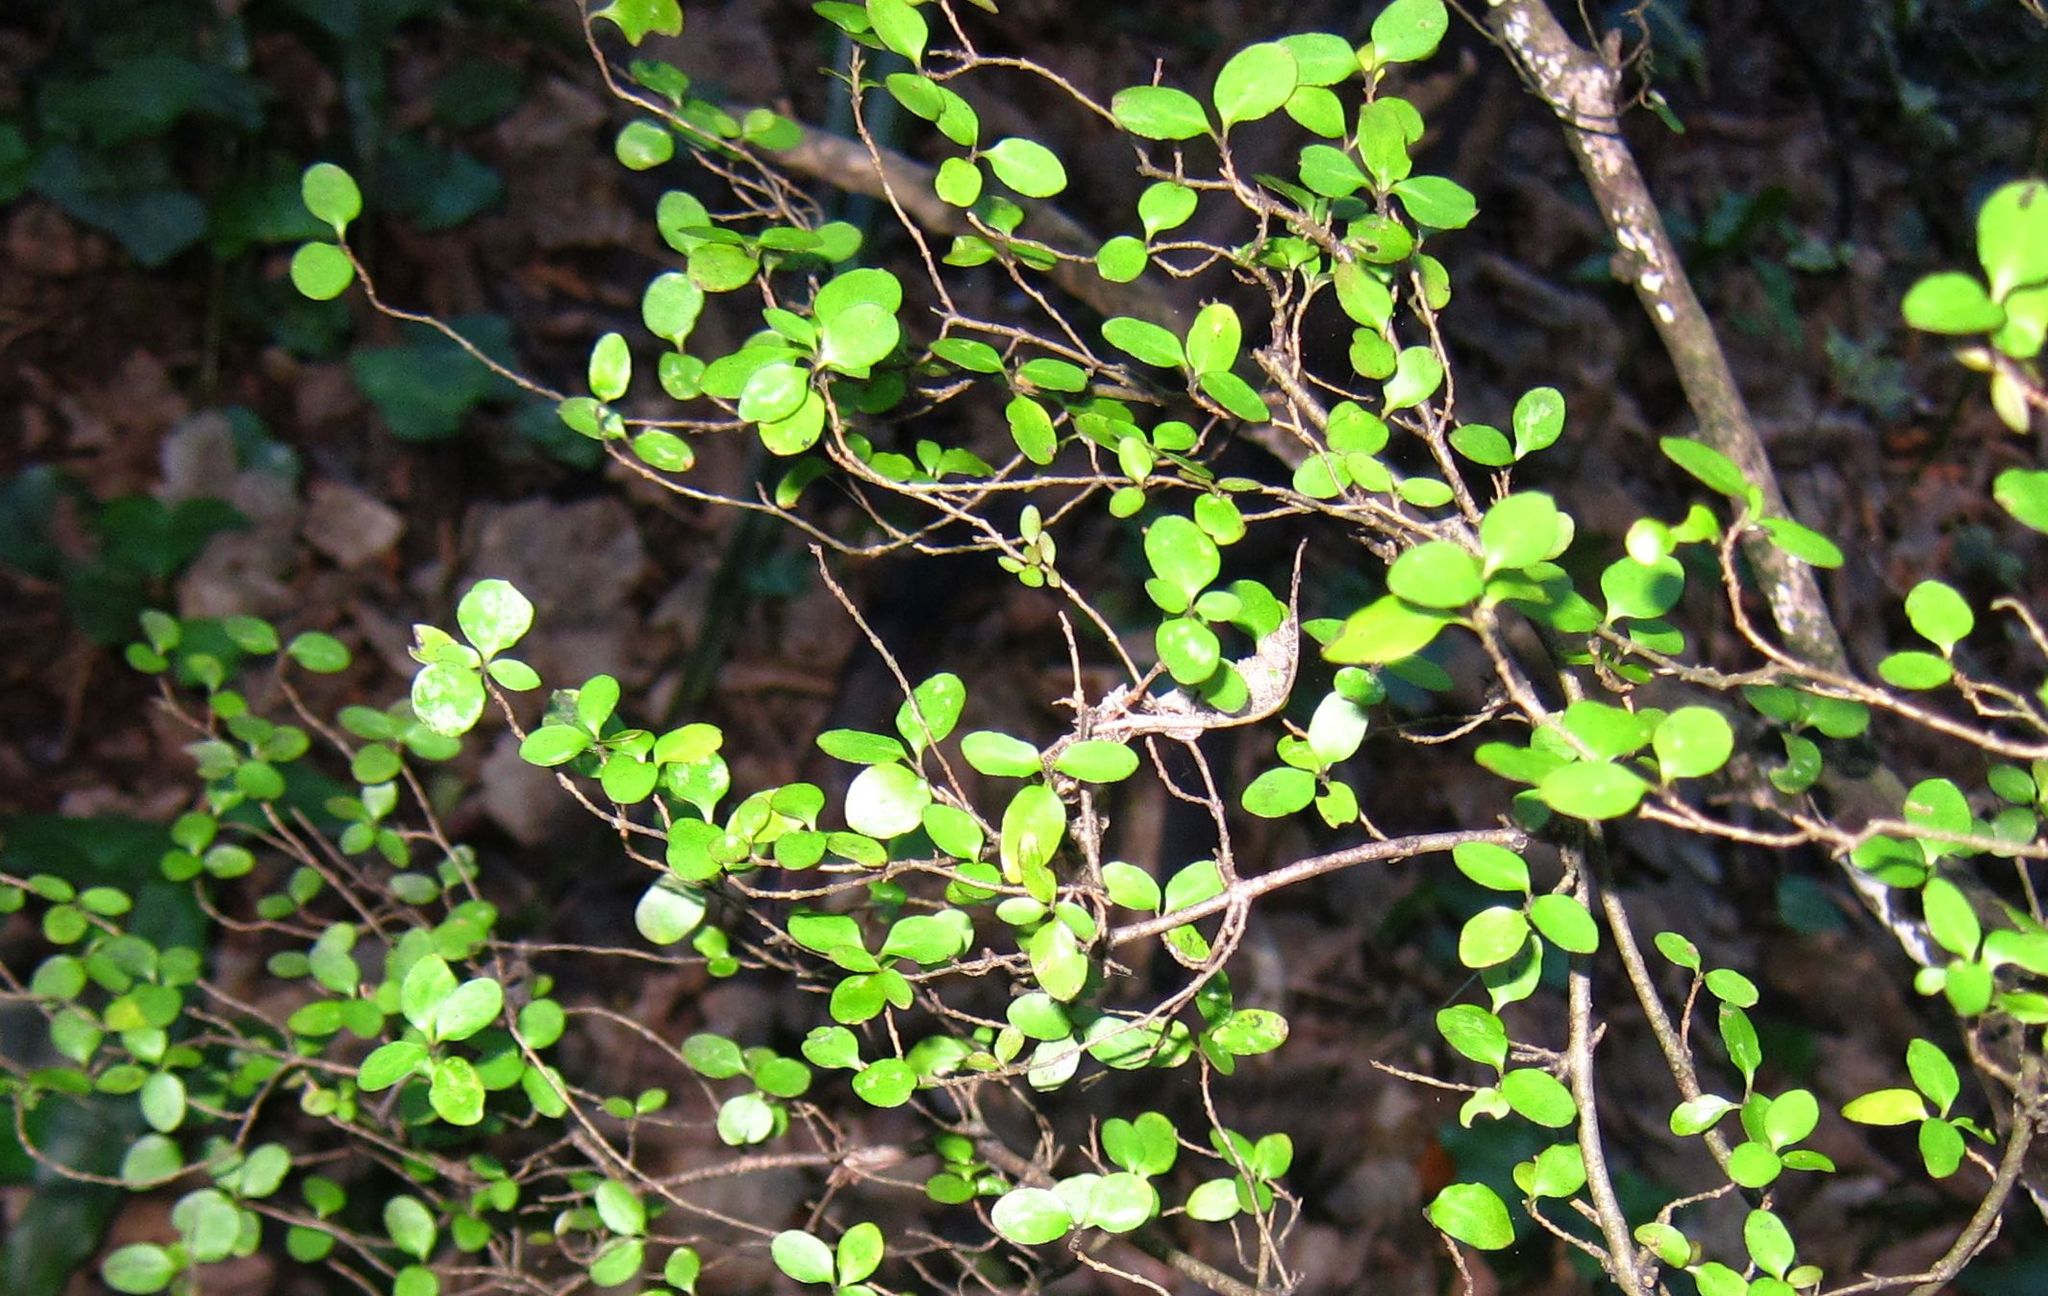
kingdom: Plantae
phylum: Tracheophyta
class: Magnoliopsida
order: Gentianales
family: Rubiaceae
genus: Coprosma
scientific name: Coprosma rhamnoides
